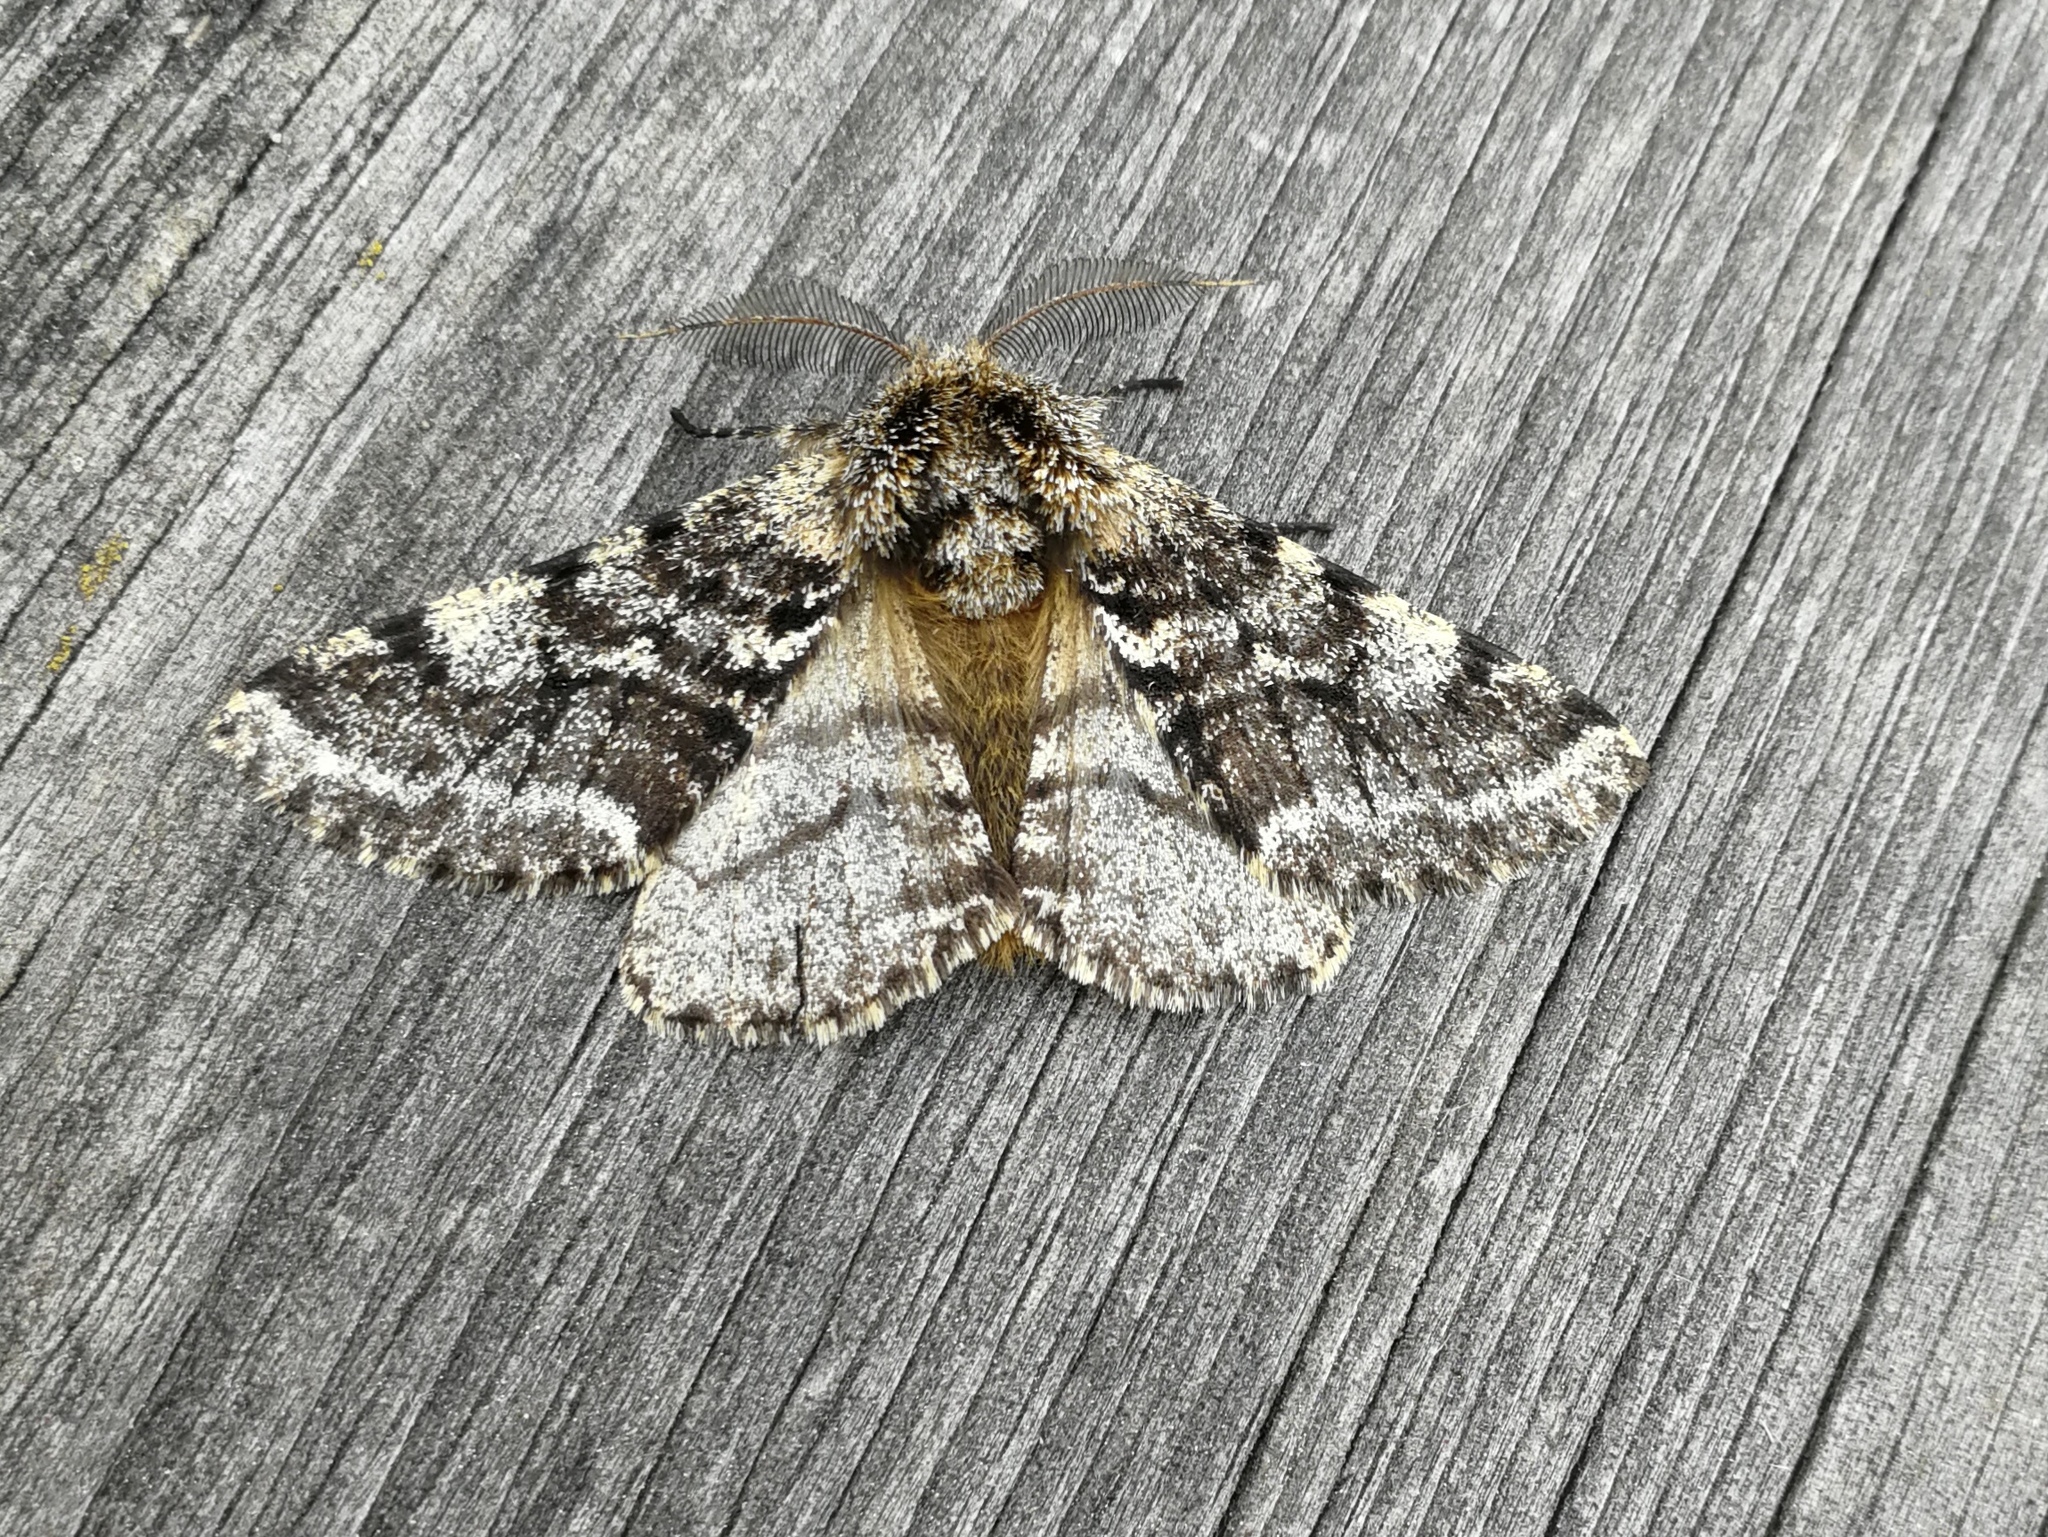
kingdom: Animalia
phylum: Arthropoda
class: Insecta
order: Lepidoptera
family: Geometridae
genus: Lycia
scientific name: Lycia hirtaria
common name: Brindled beauty
